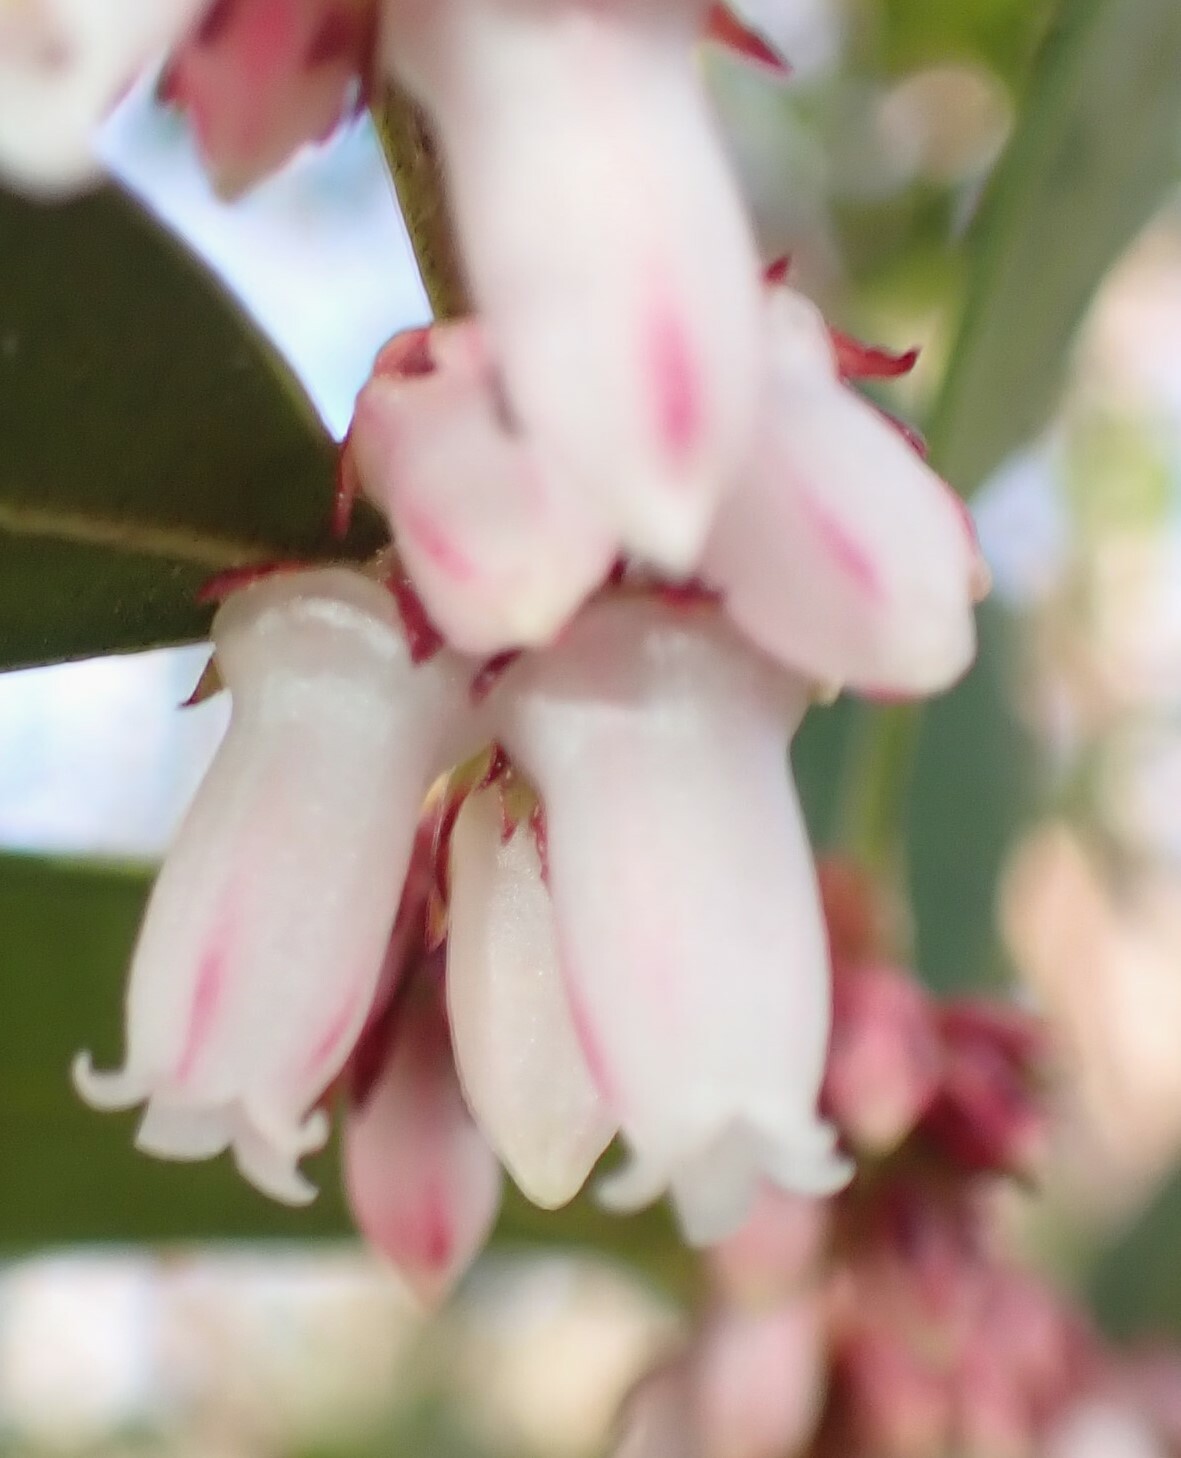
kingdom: Plantae
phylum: Tracheophyta
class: Magnoliopsida
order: Ericales
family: Ericaceae
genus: Lyonia
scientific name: Lyonia lucida
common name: Fetterbush
